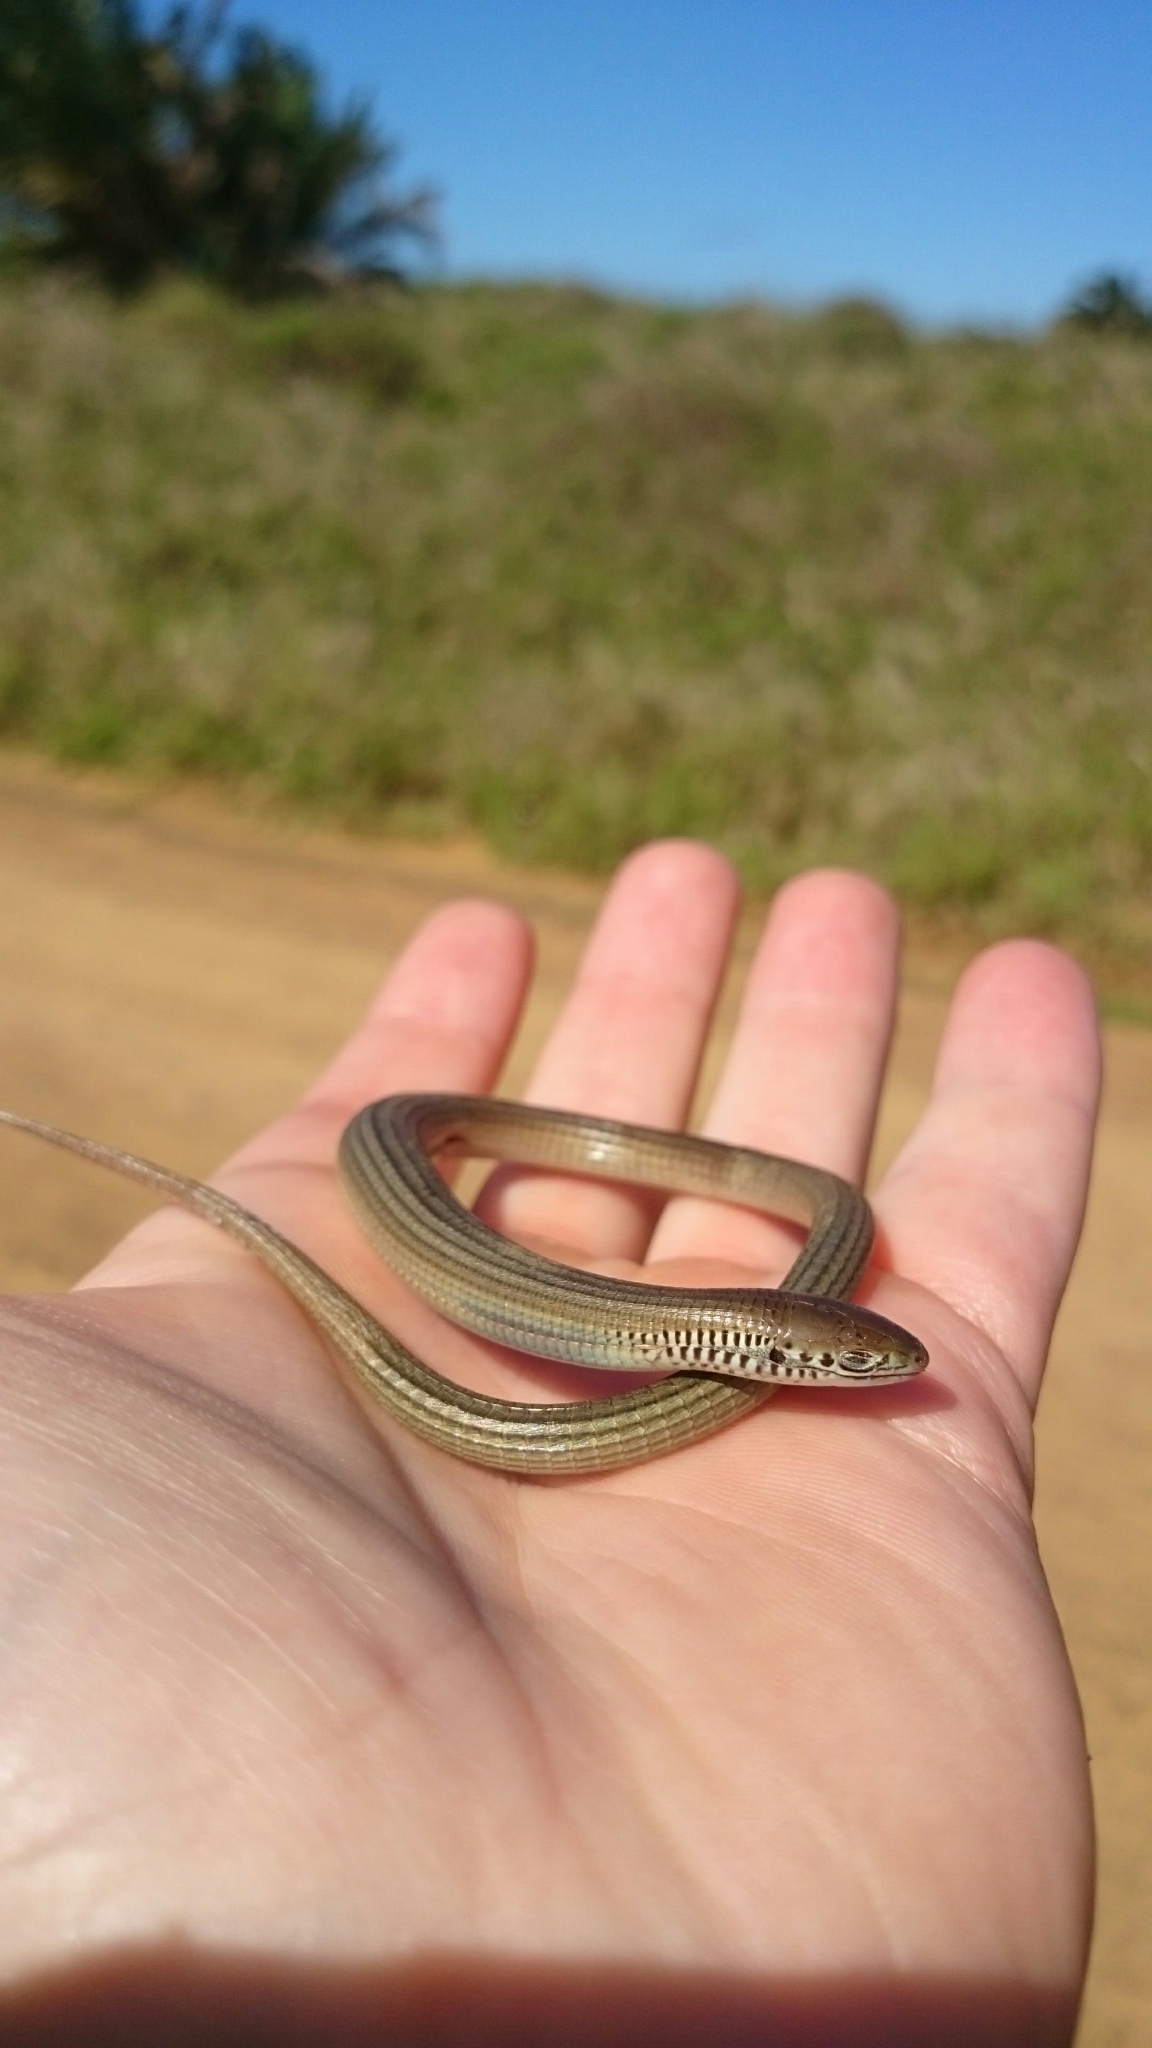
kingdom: Animalia
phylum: Chordata
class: Squamata
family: Gerrhosauridae
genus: Tetradactylus
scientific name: Tetradactylus africanus
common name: African whip lizard
